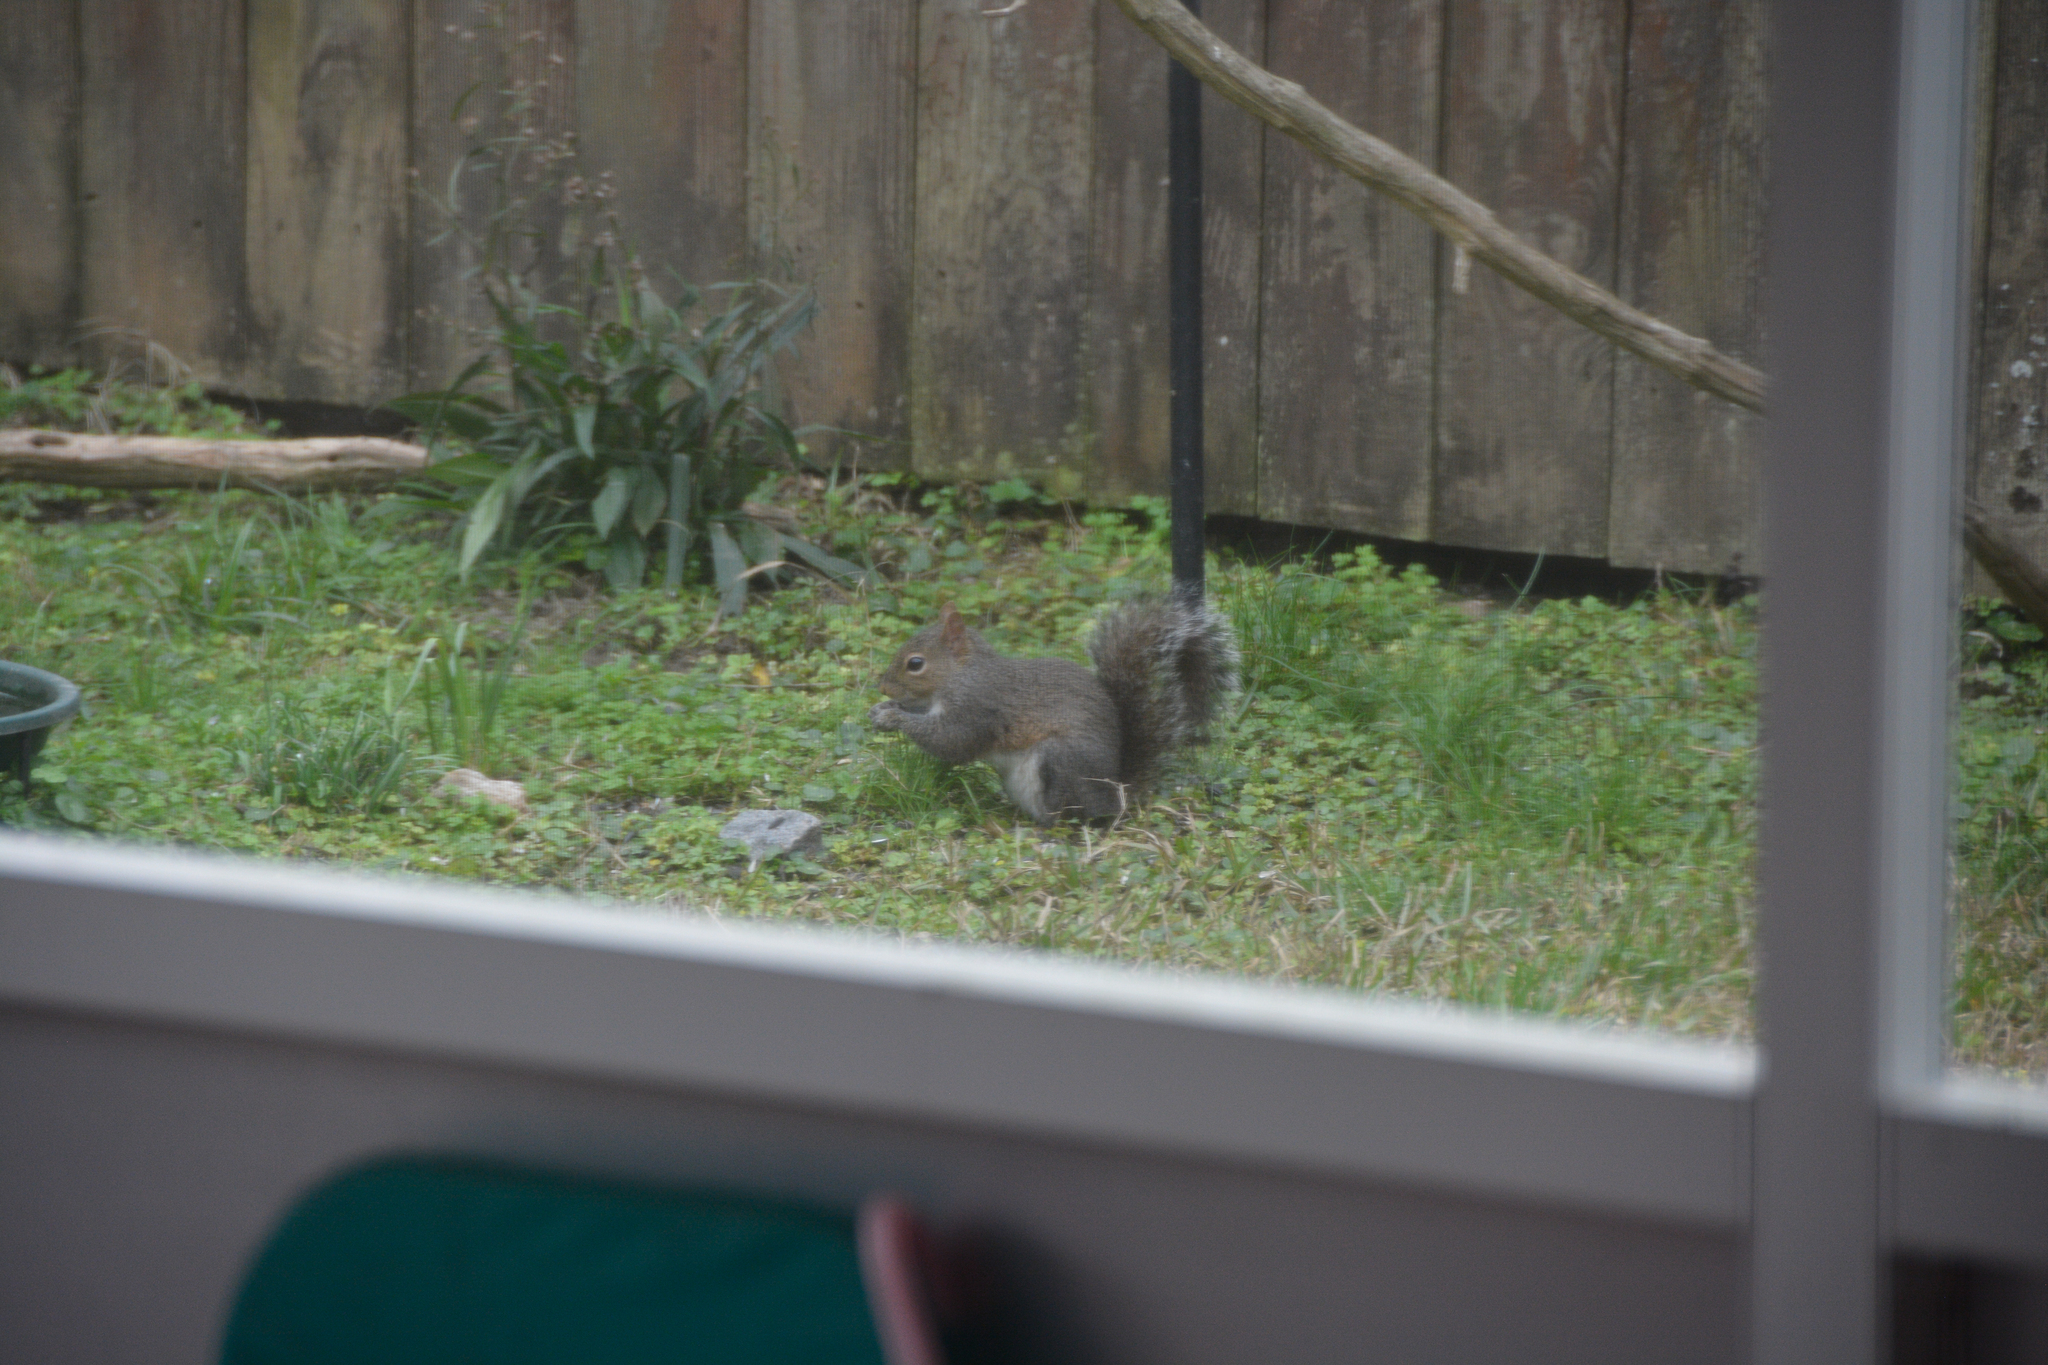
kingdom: Animalia
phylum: Chordata
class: Mammalia
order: Rodentia
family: Sciuridae
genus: Sciurus
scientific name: Sciurus carolinensis
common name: Eastern gray squirrel
